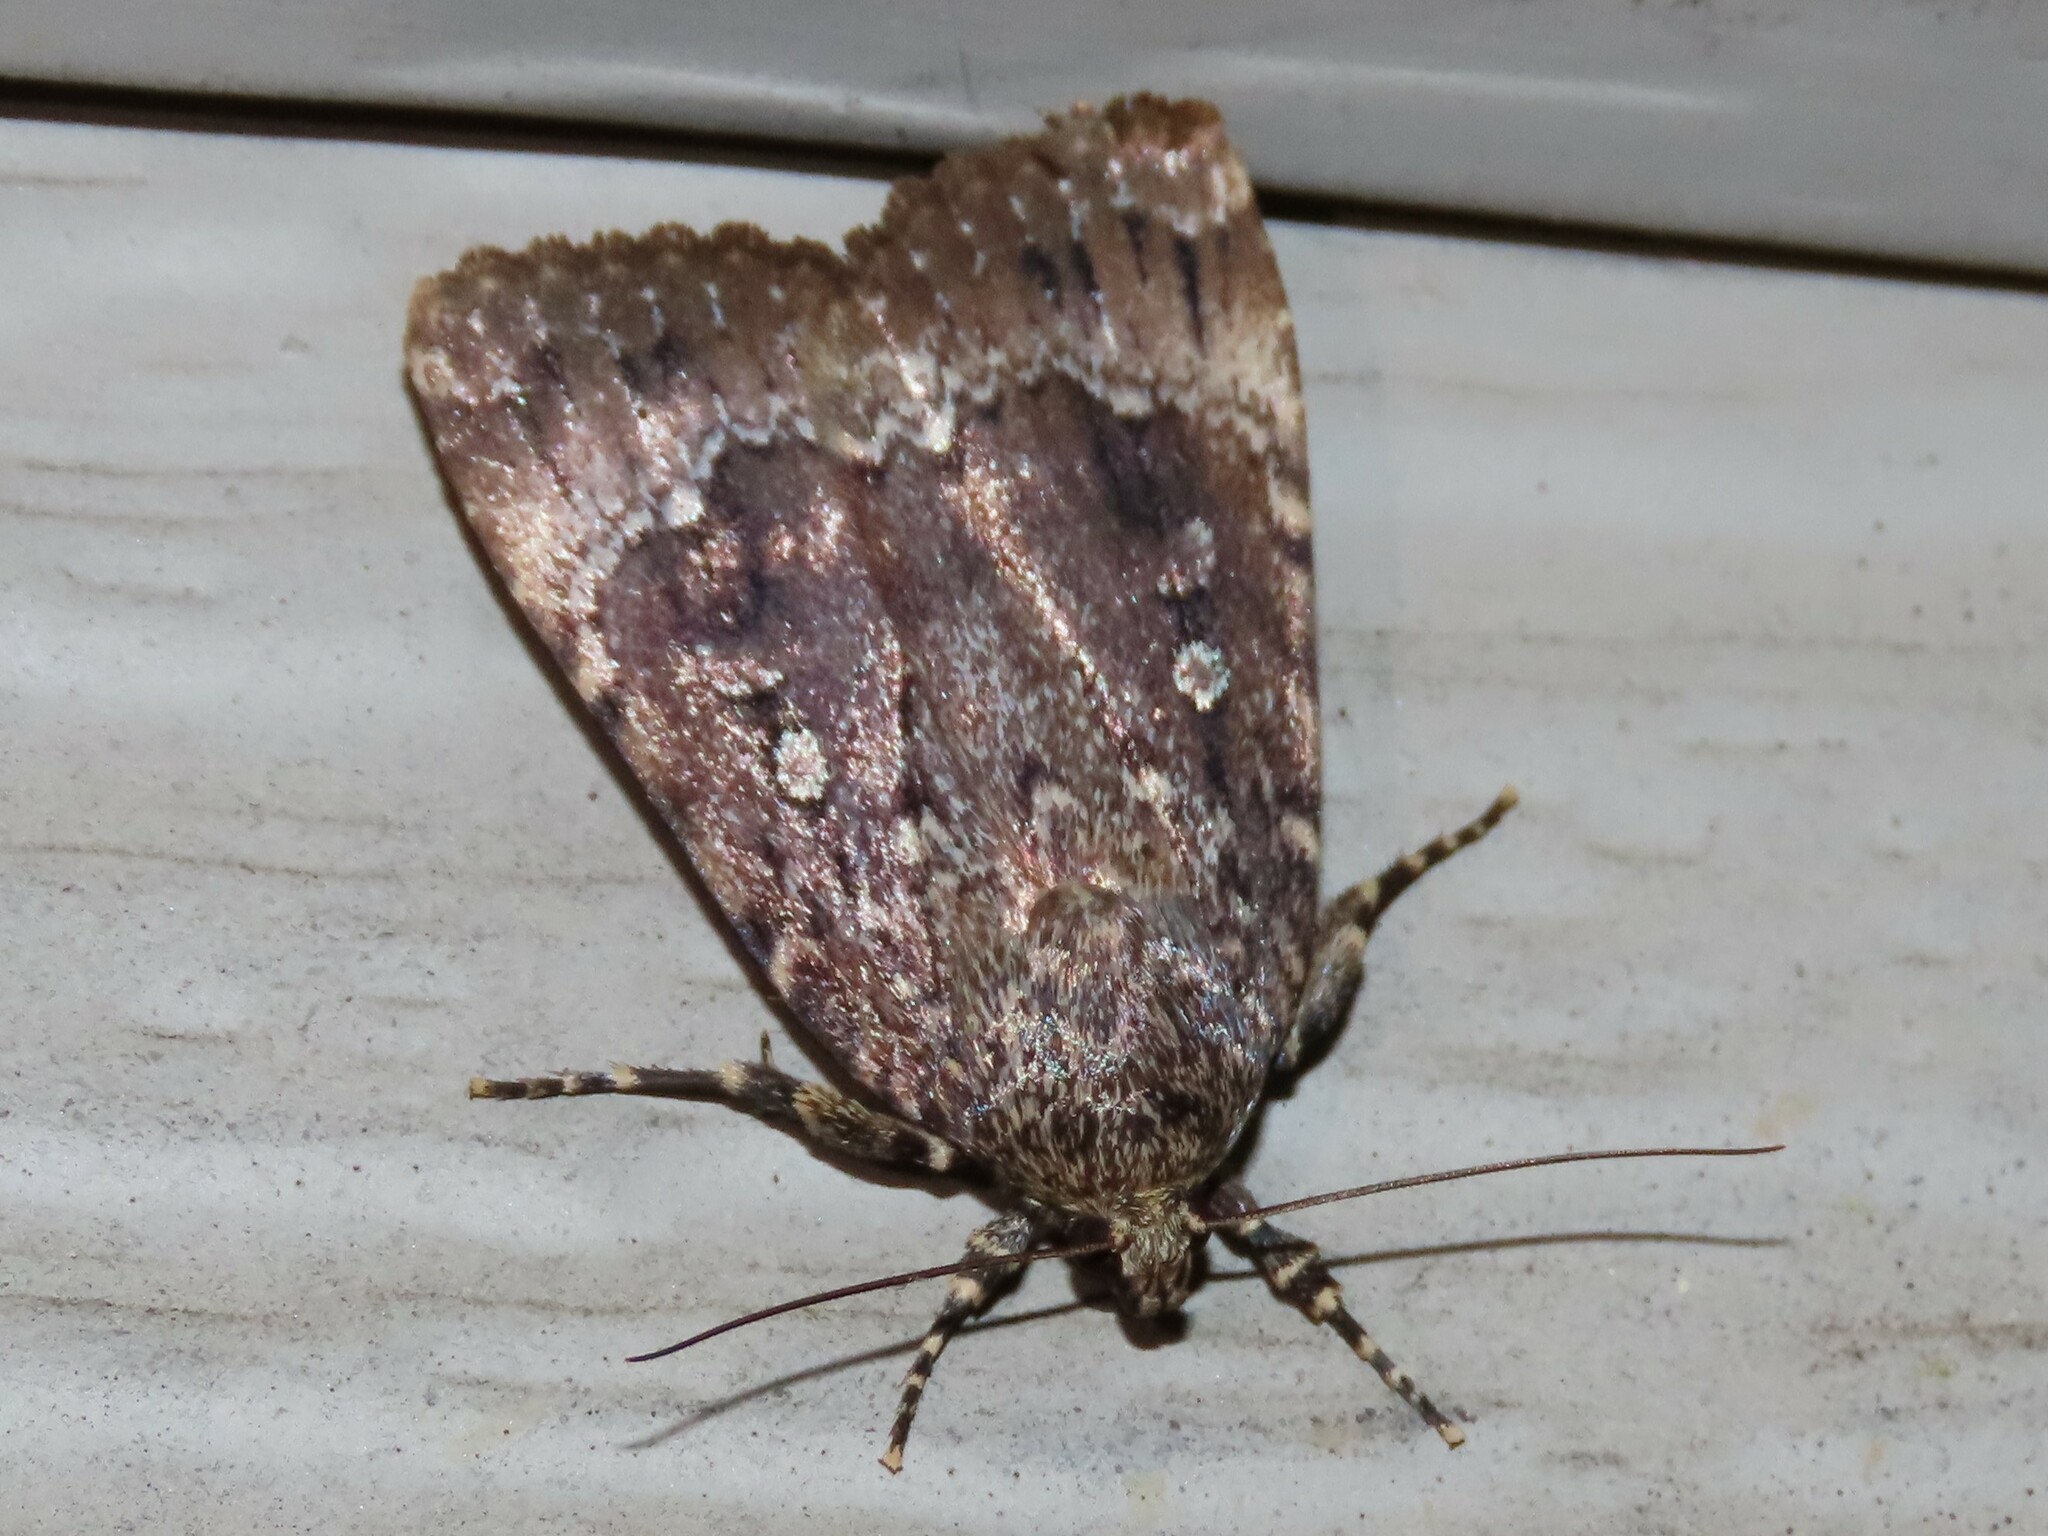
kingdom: Animalia
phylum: Arthropoda
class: Insecta
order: Lepidoptera
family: Noctuidae
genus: Amphipyra
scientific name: Amphipyra pyramidoides
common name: American copper underwing
